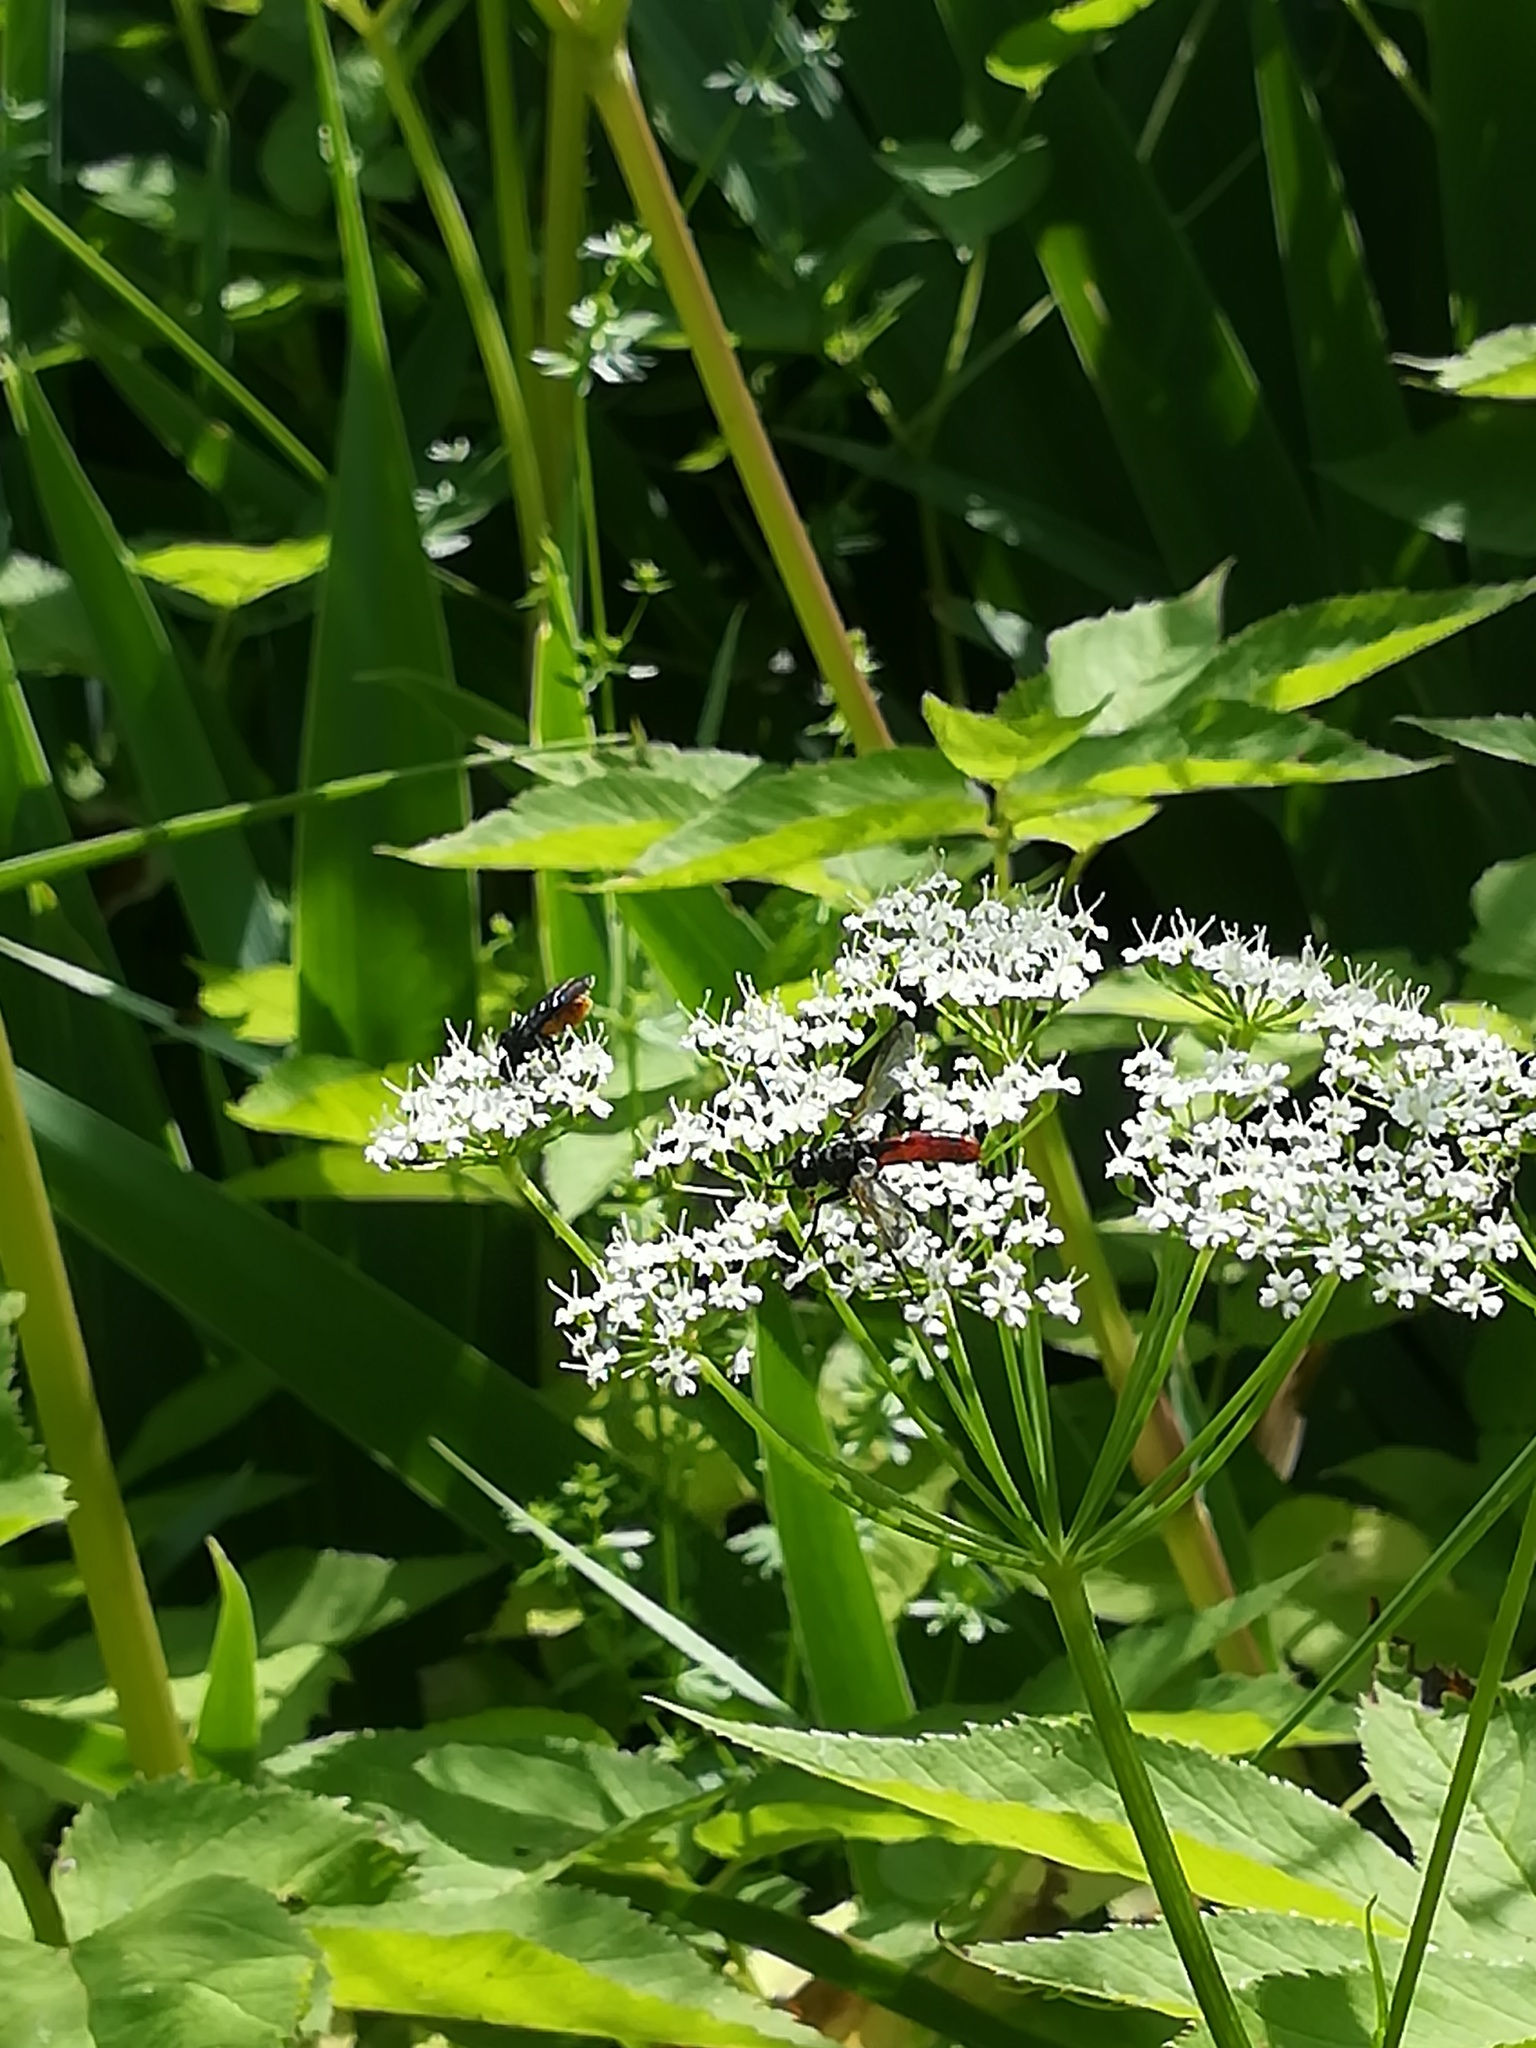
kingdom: Animalia
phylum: Arthropoda
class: Insecta
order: Diptera
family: Tachinidae
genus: Cylindromyia
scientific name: Cylindromyia bicolor
